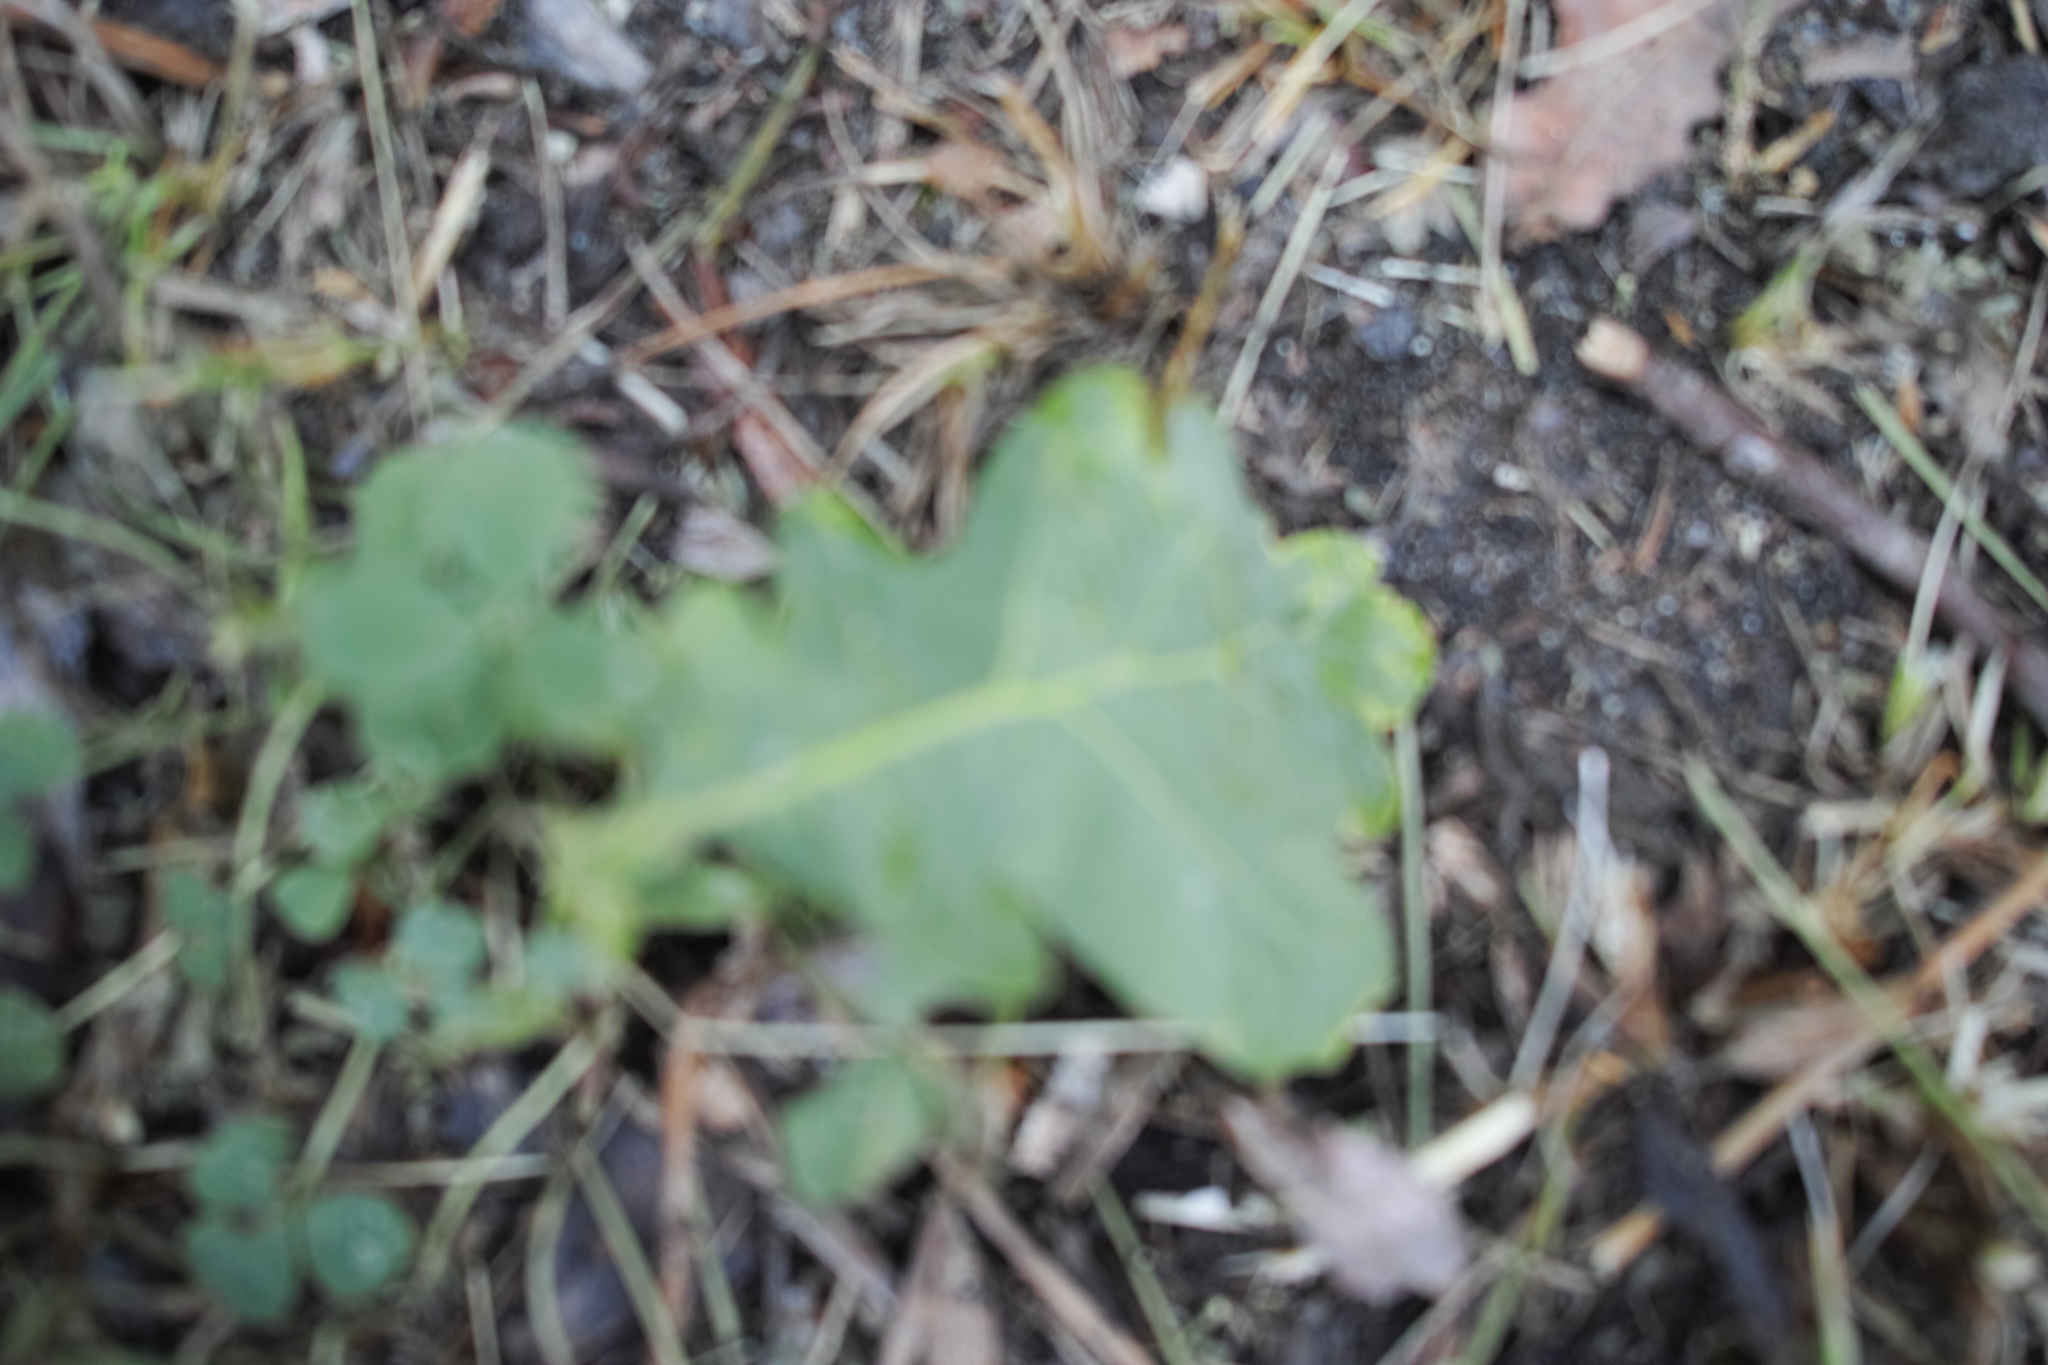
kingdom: Plantae
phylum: Tracheophyta
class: Magnoliopsida
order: Fagales
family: Fagaceae
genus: Quercus
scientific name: Quercus robur
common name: Pedunculate oak
